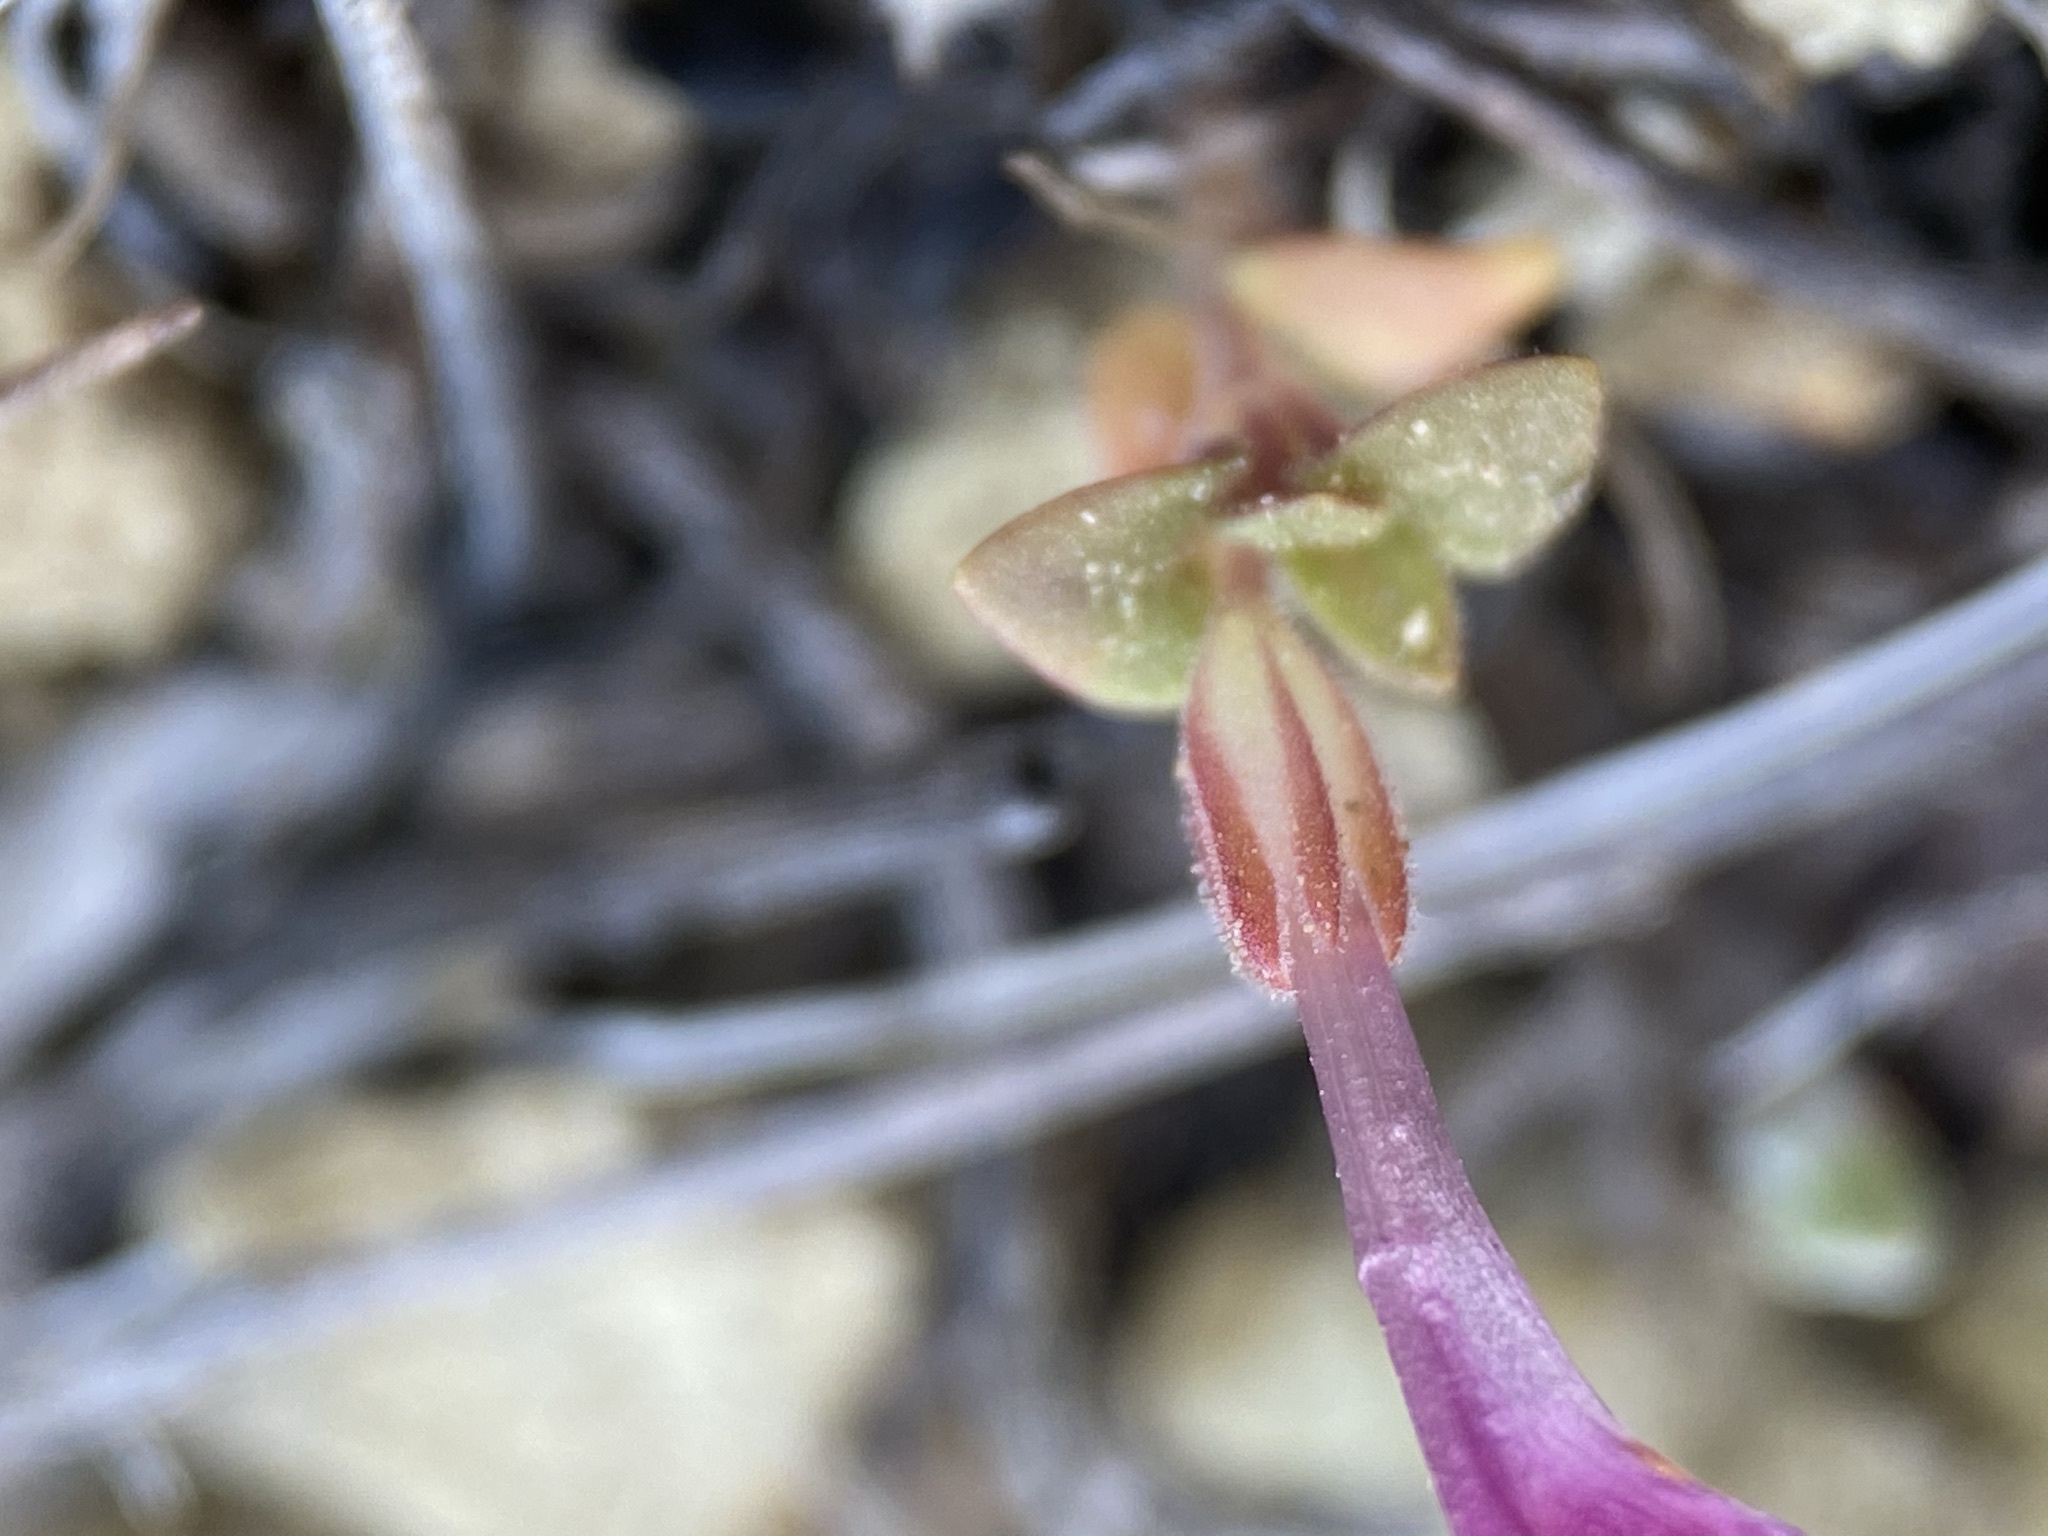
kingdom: Plantae
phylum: Tracheophyta
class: Magnoliopsida
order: Lamiales
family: Phrymaceae
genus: Diplacus
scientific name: Diplacus nanus
